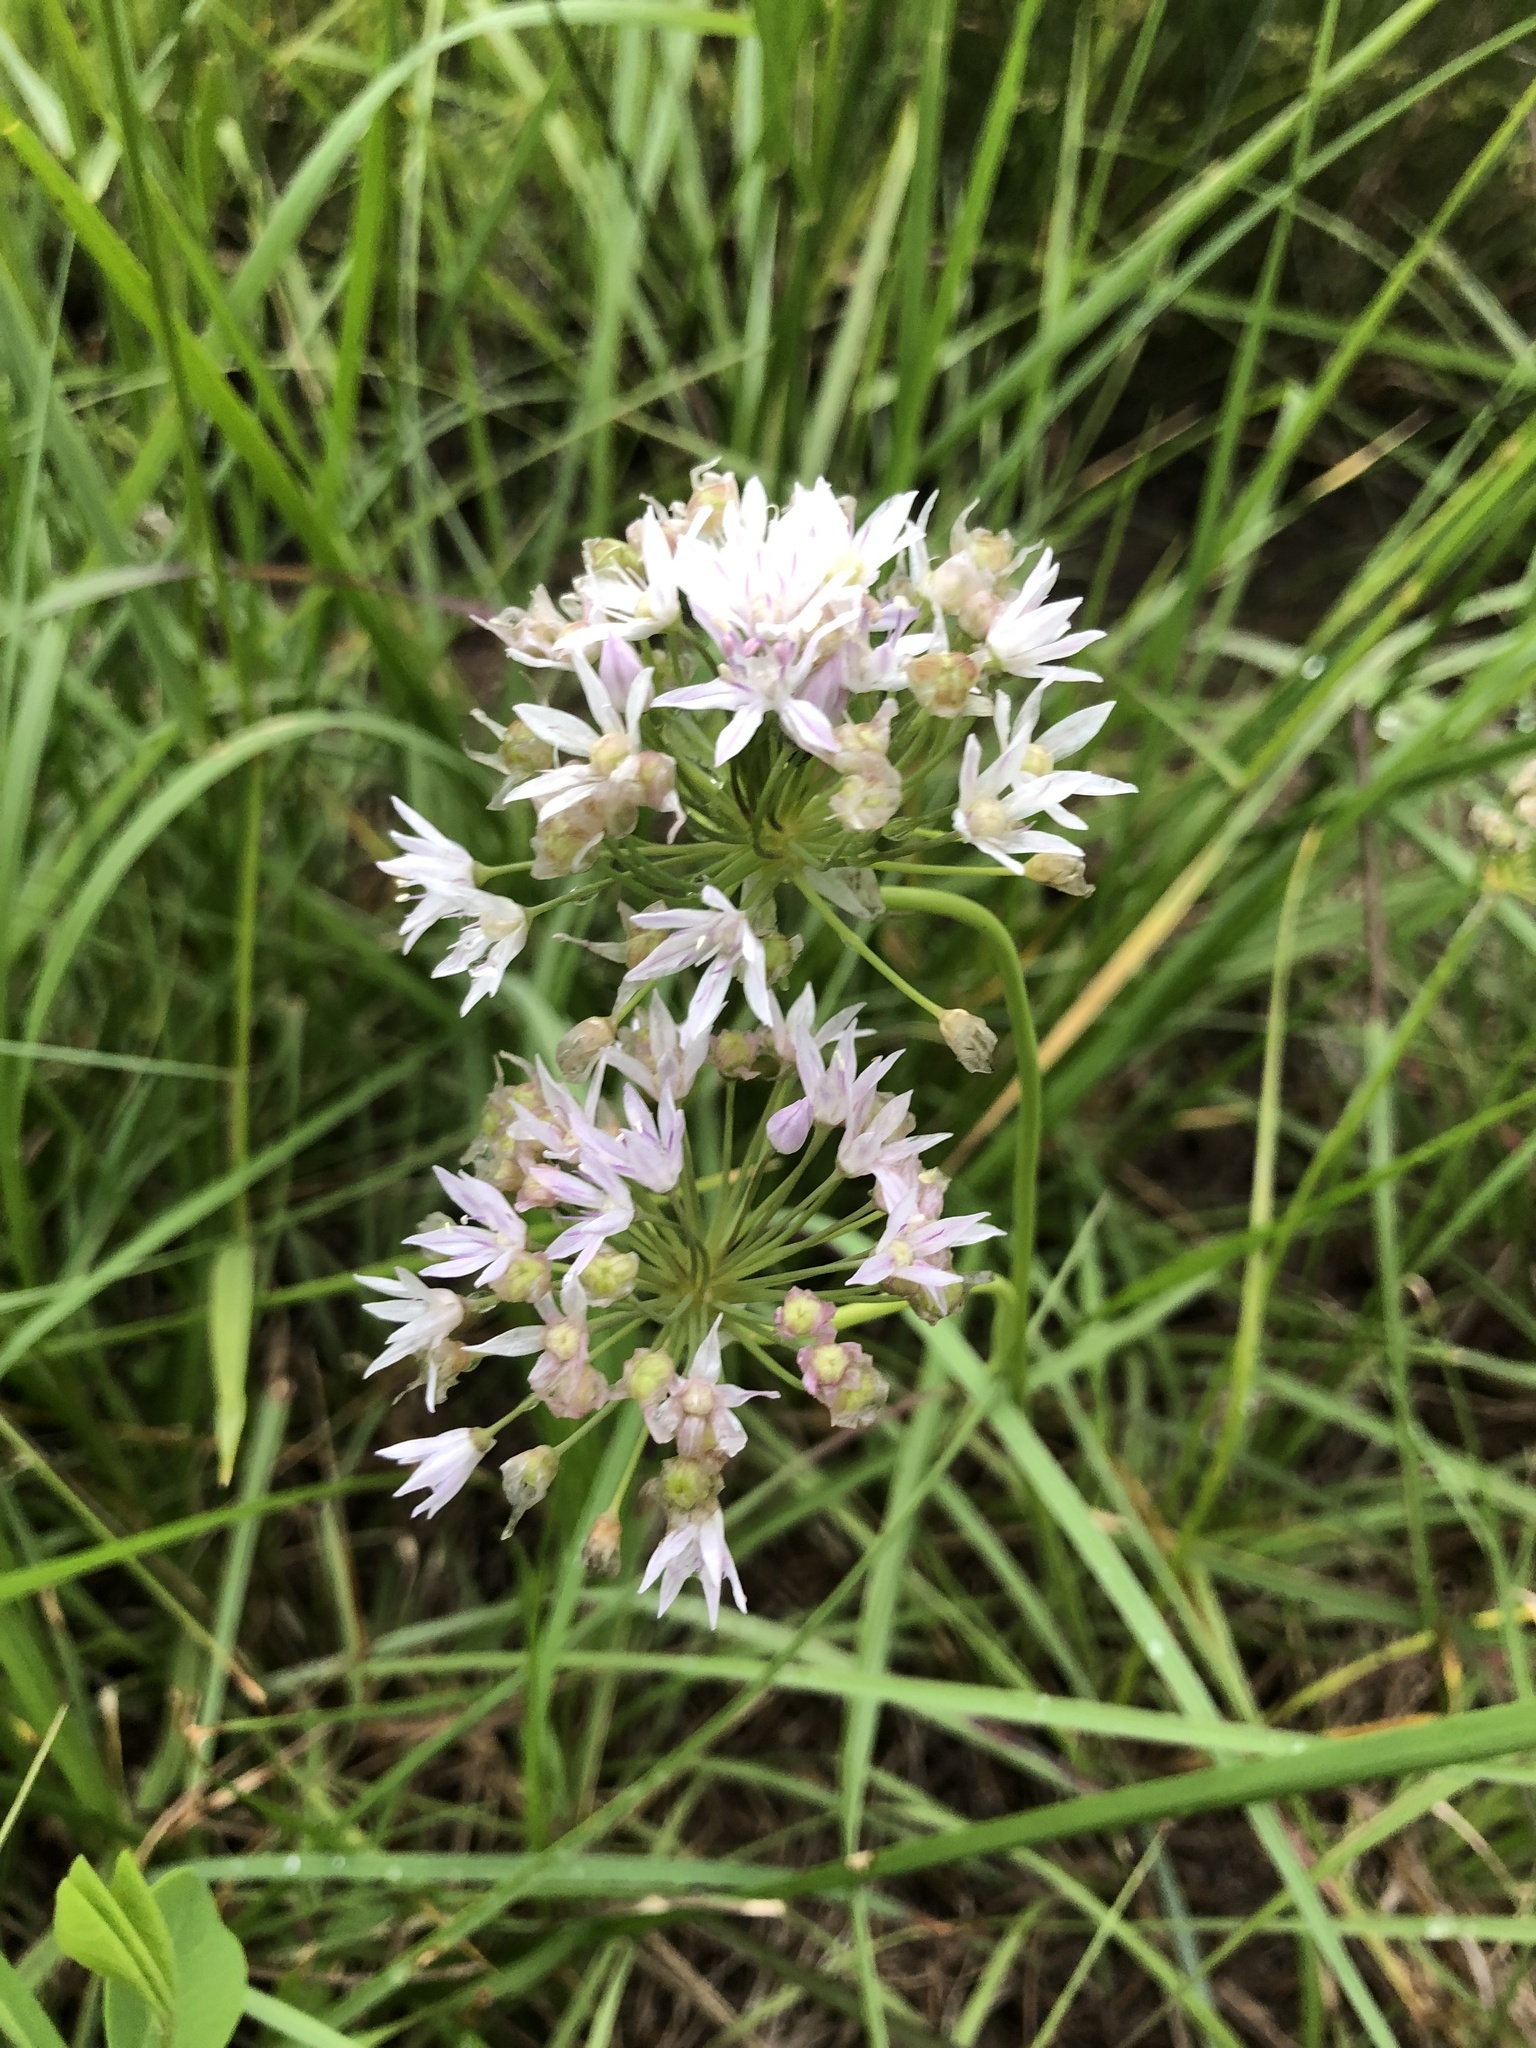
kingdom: Plantae
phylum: Tracheophyta
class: Liliopsida
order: Asparagales
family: Amaryllidaceae
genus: Allium
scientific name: Allium canadense
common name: Meadow garlic
